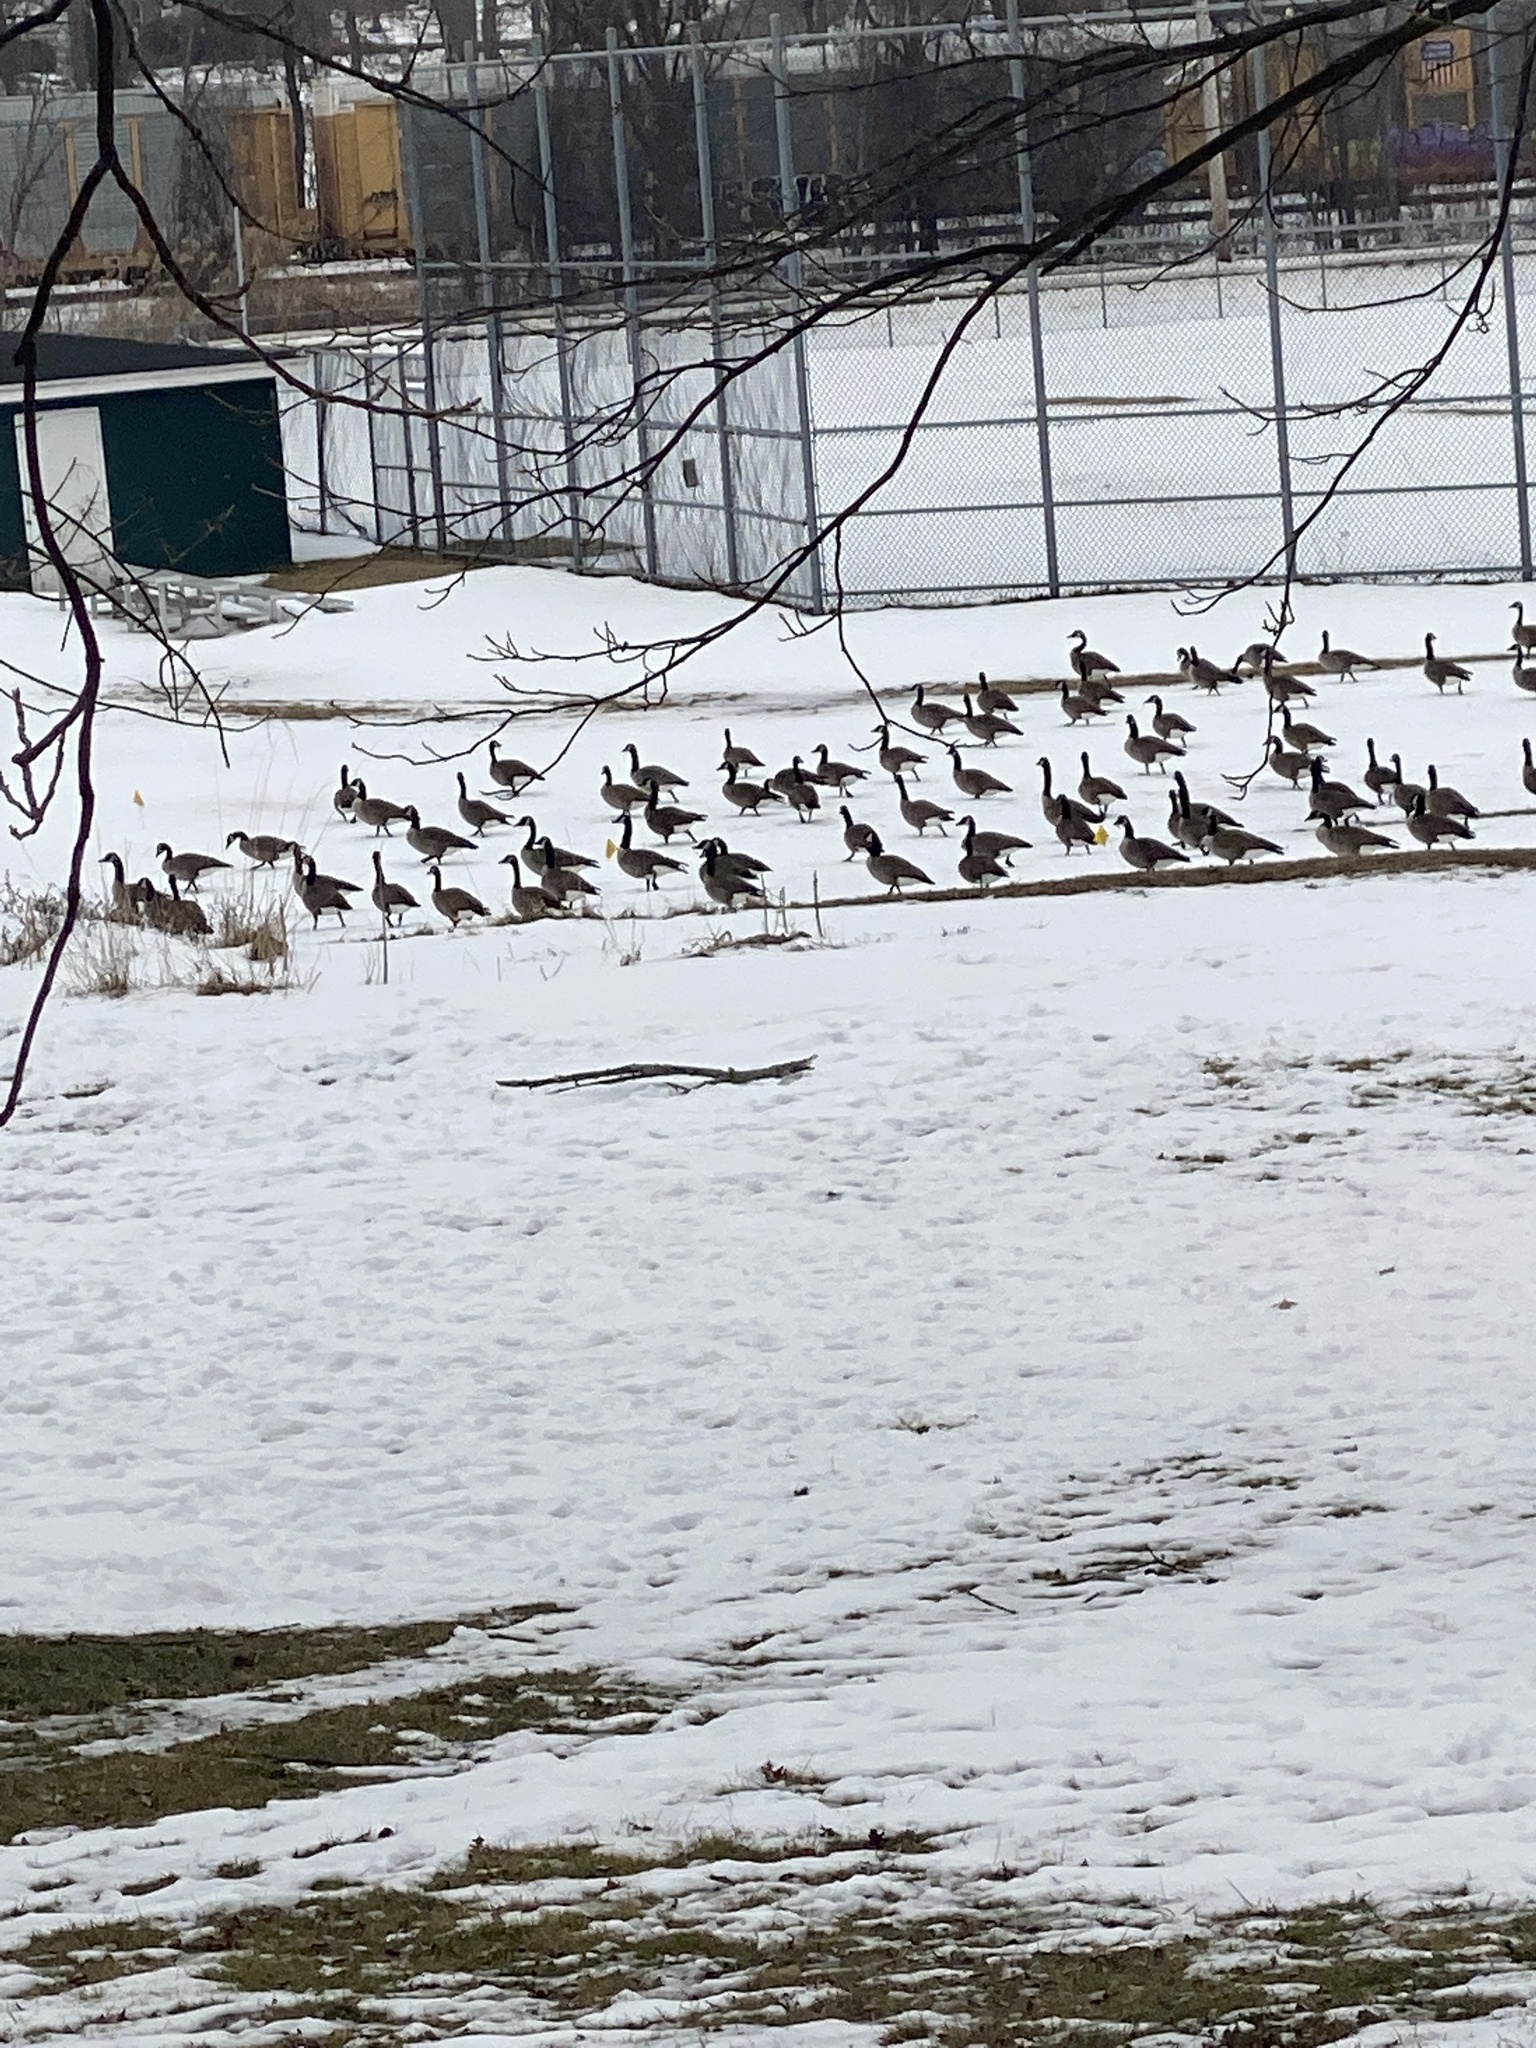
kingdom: Animalia
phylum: Chordata
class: Aves
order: Anseriformes
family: Anatidae
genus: Branta
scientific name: Branta canadensis
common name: Canada goose
